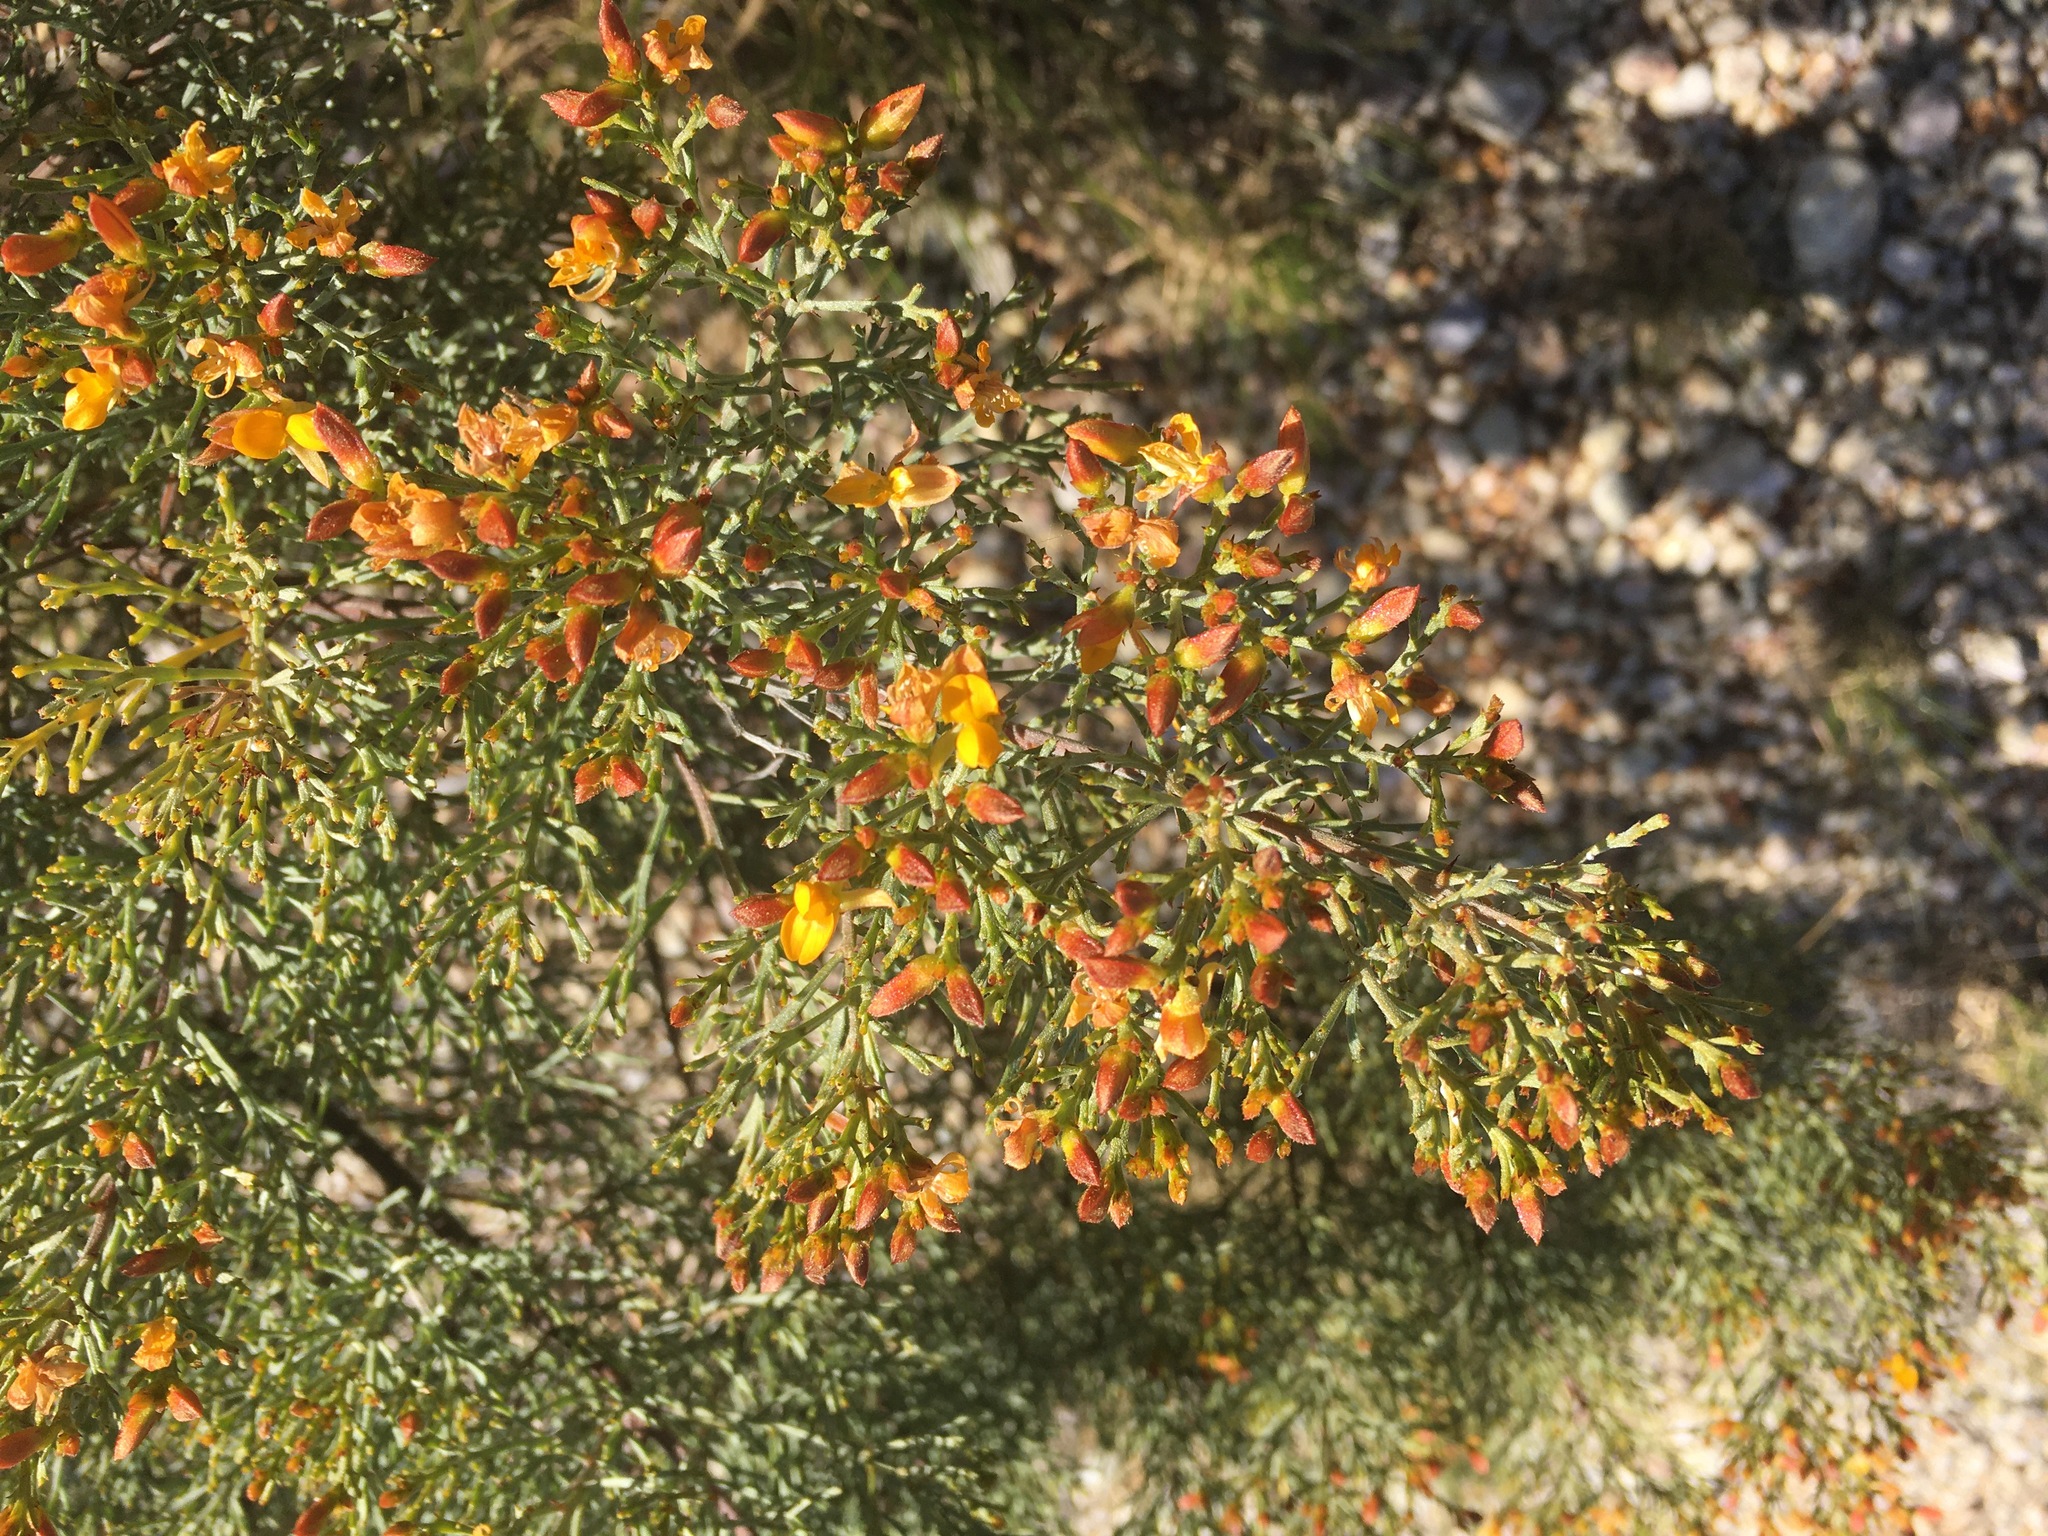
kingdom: Plantae
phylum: Tracheophyta
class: Magnoliopsida
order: Fabales
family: Fabaceae
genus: Jacksonia
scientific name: Jacksonia ramosissima
